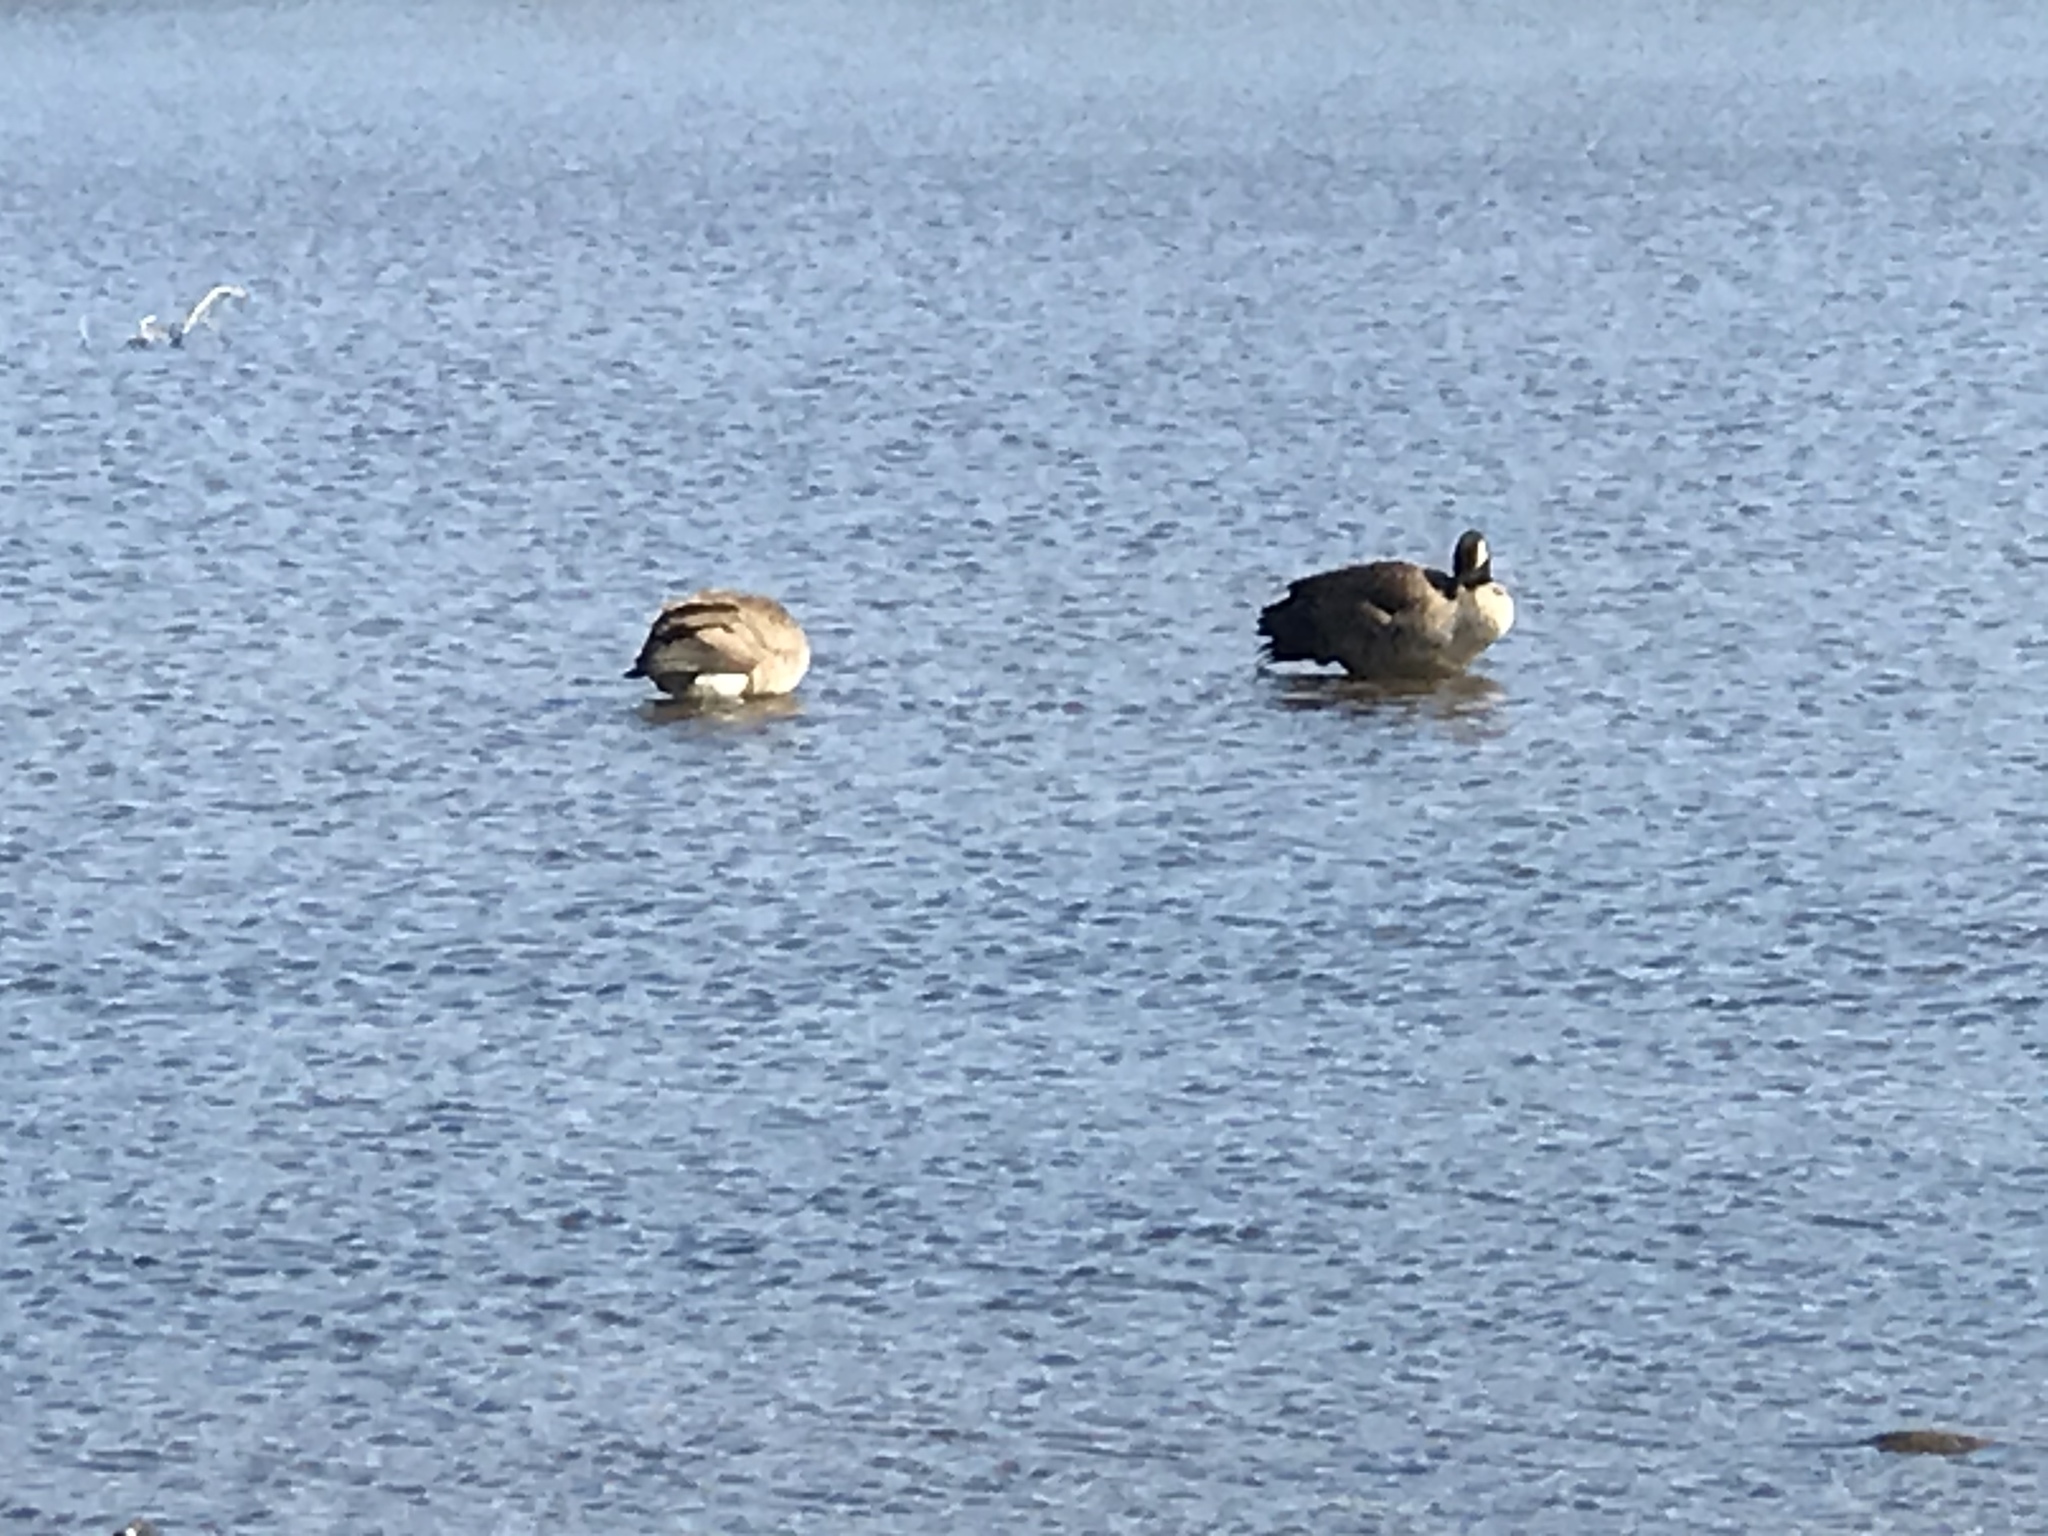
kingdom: Animalia
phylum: Chordata
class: Aves
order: Anseriformes
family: Anatidae
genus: Branta
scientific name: Branta canadensis
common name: Canada goose
